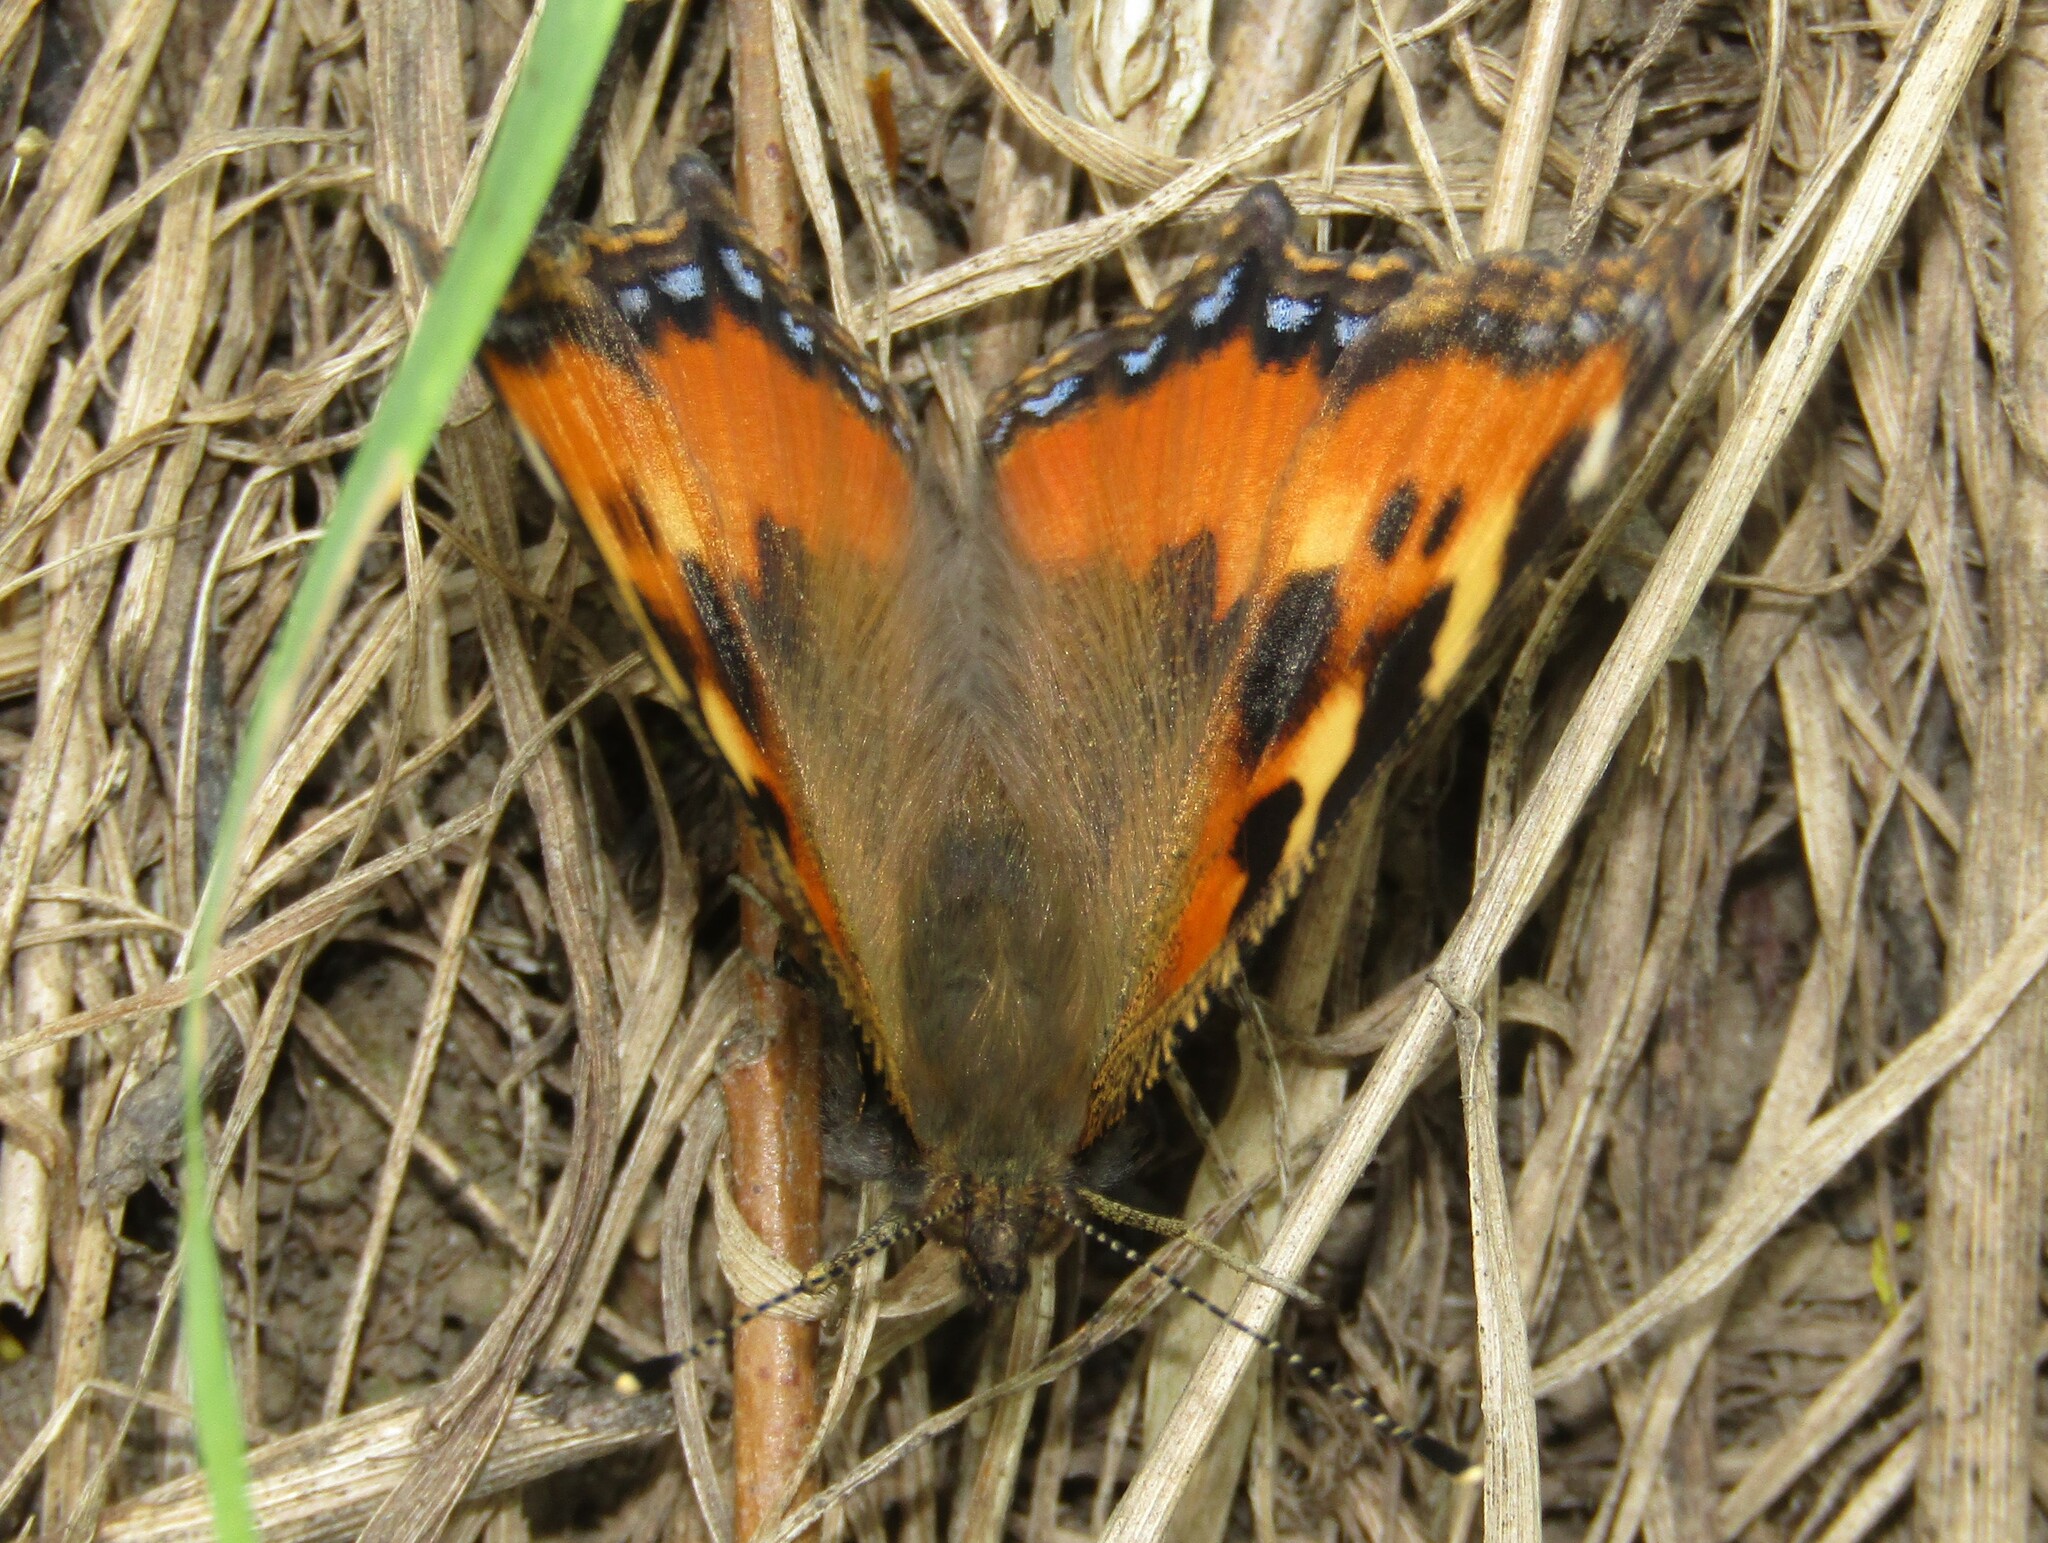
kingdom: Animalia
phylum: Arthropoda
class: Insecta
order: Lepidoptera
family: Nymphalidae
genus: Aglais
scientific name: Aglais urticae
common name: Small tortoiseshell
